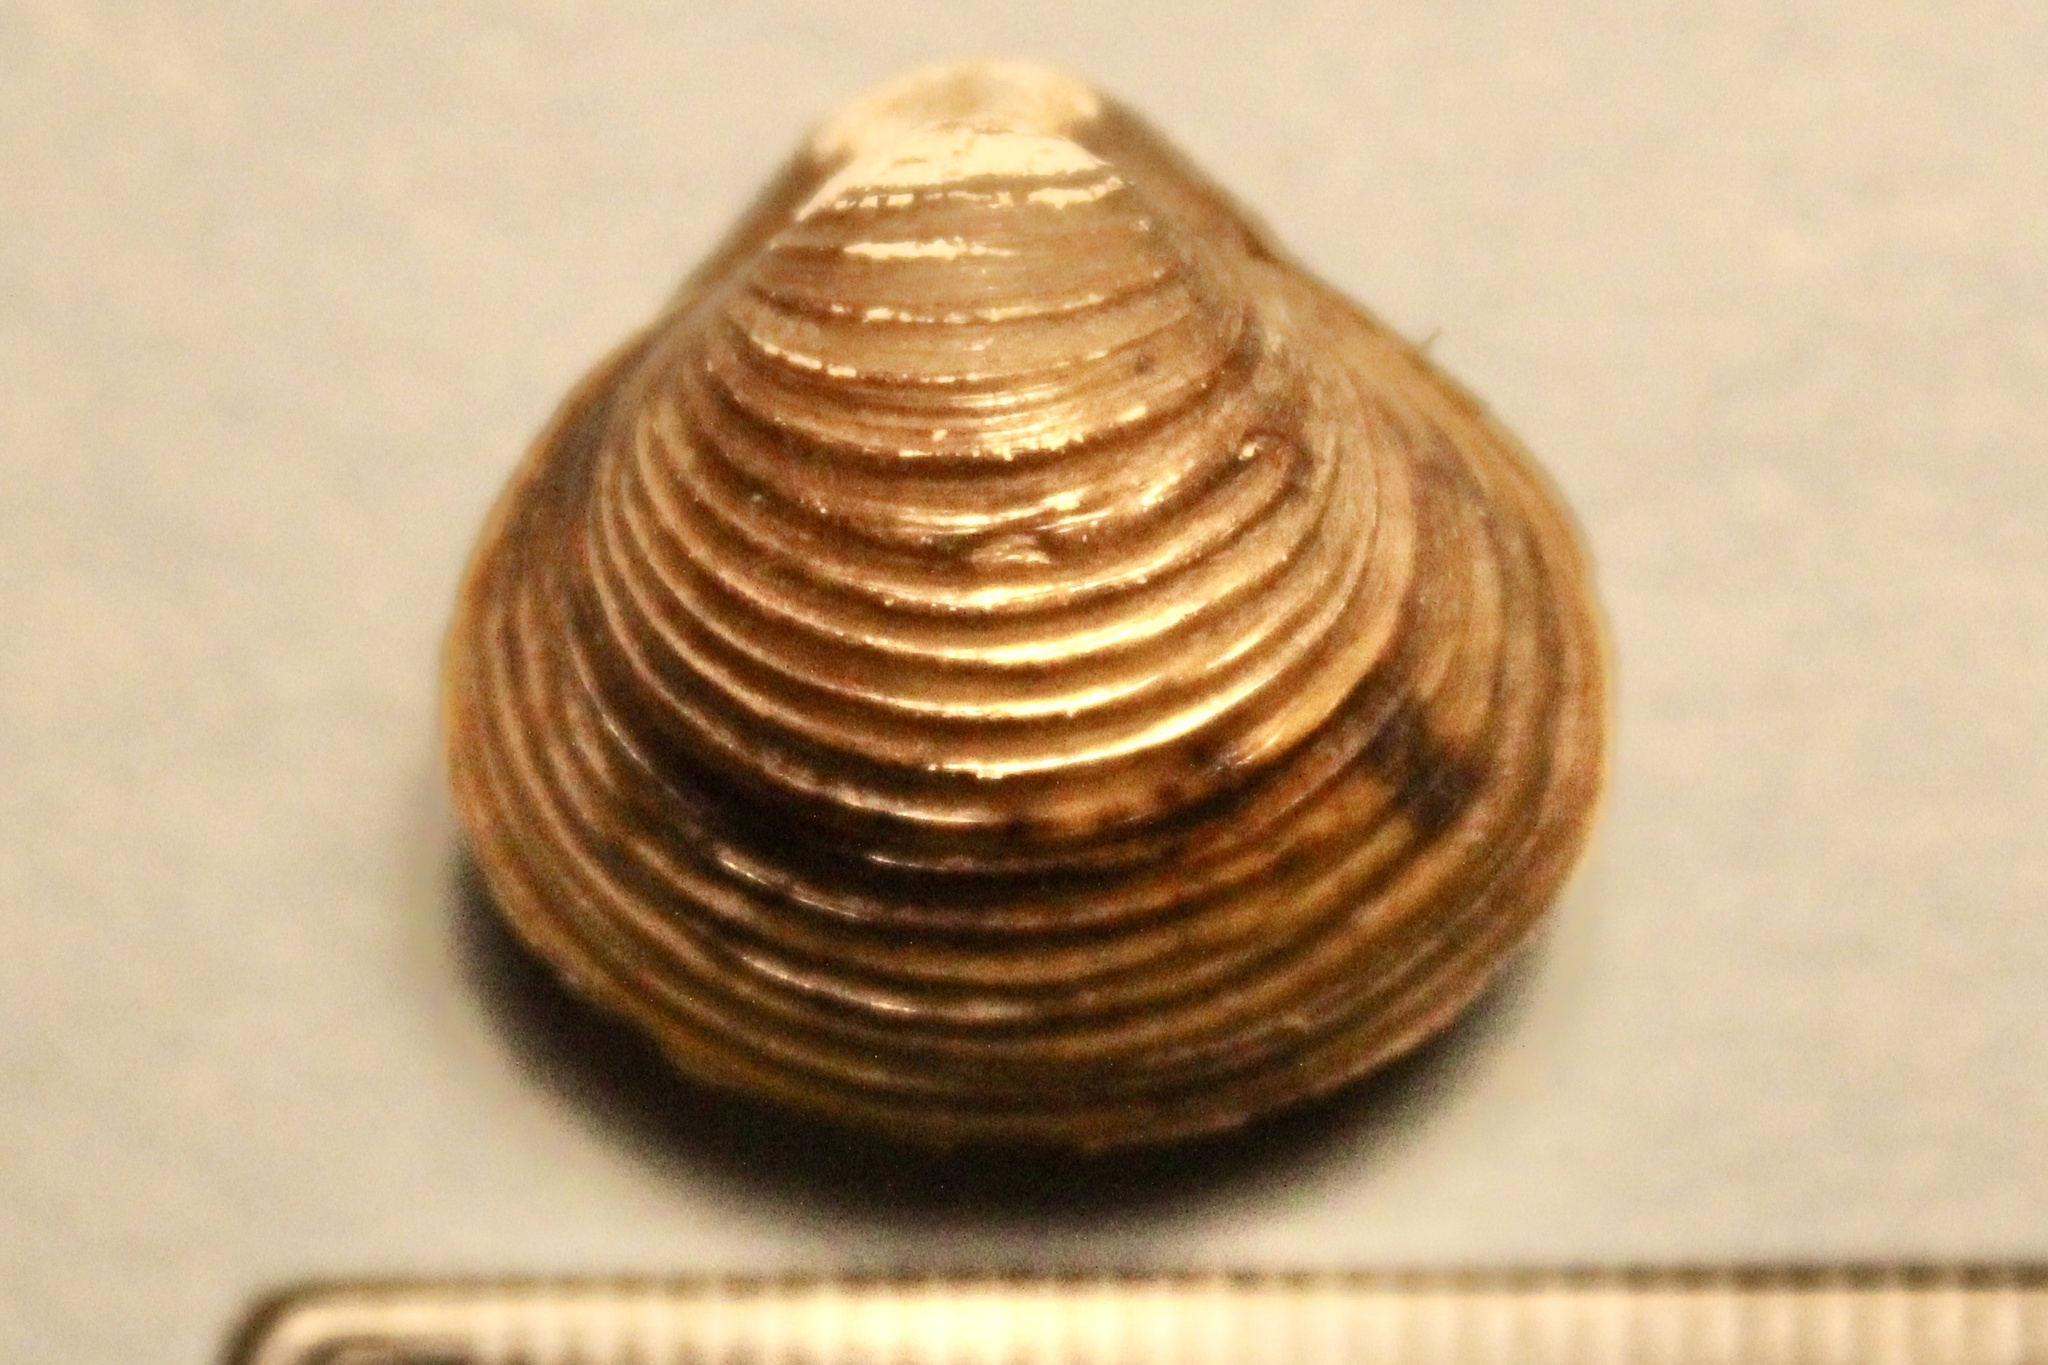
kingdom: Animalia
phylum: Mollusca
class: Bivalvia
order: Venerida
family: Cyrenidae
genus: Corbicula
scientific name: Corbicula fluminea
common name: Asian clam
